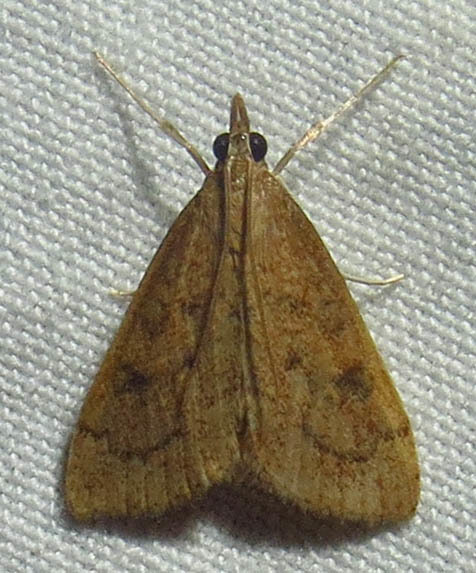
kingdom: Animalia
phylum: Arthropoda
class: Insecta
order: Lepidoptera
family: Crambidae
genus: Udea
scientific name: Udea rubigalis
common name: Celery leaftier moth
